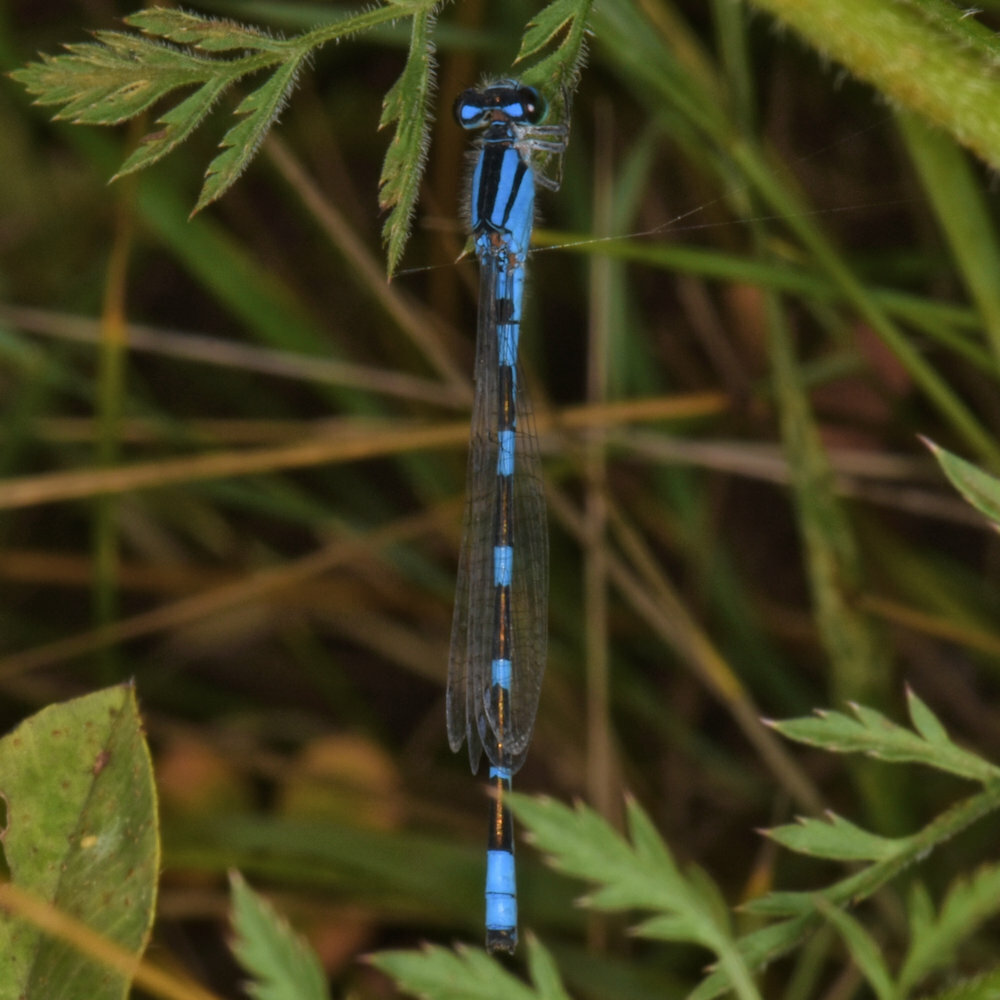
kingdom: Animalia
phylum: Arthropoda
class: Insecta
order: Odonata
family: Coenagrionidae
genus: Enallagma
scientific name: Enallagma carunculatum
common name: Tule bluet
